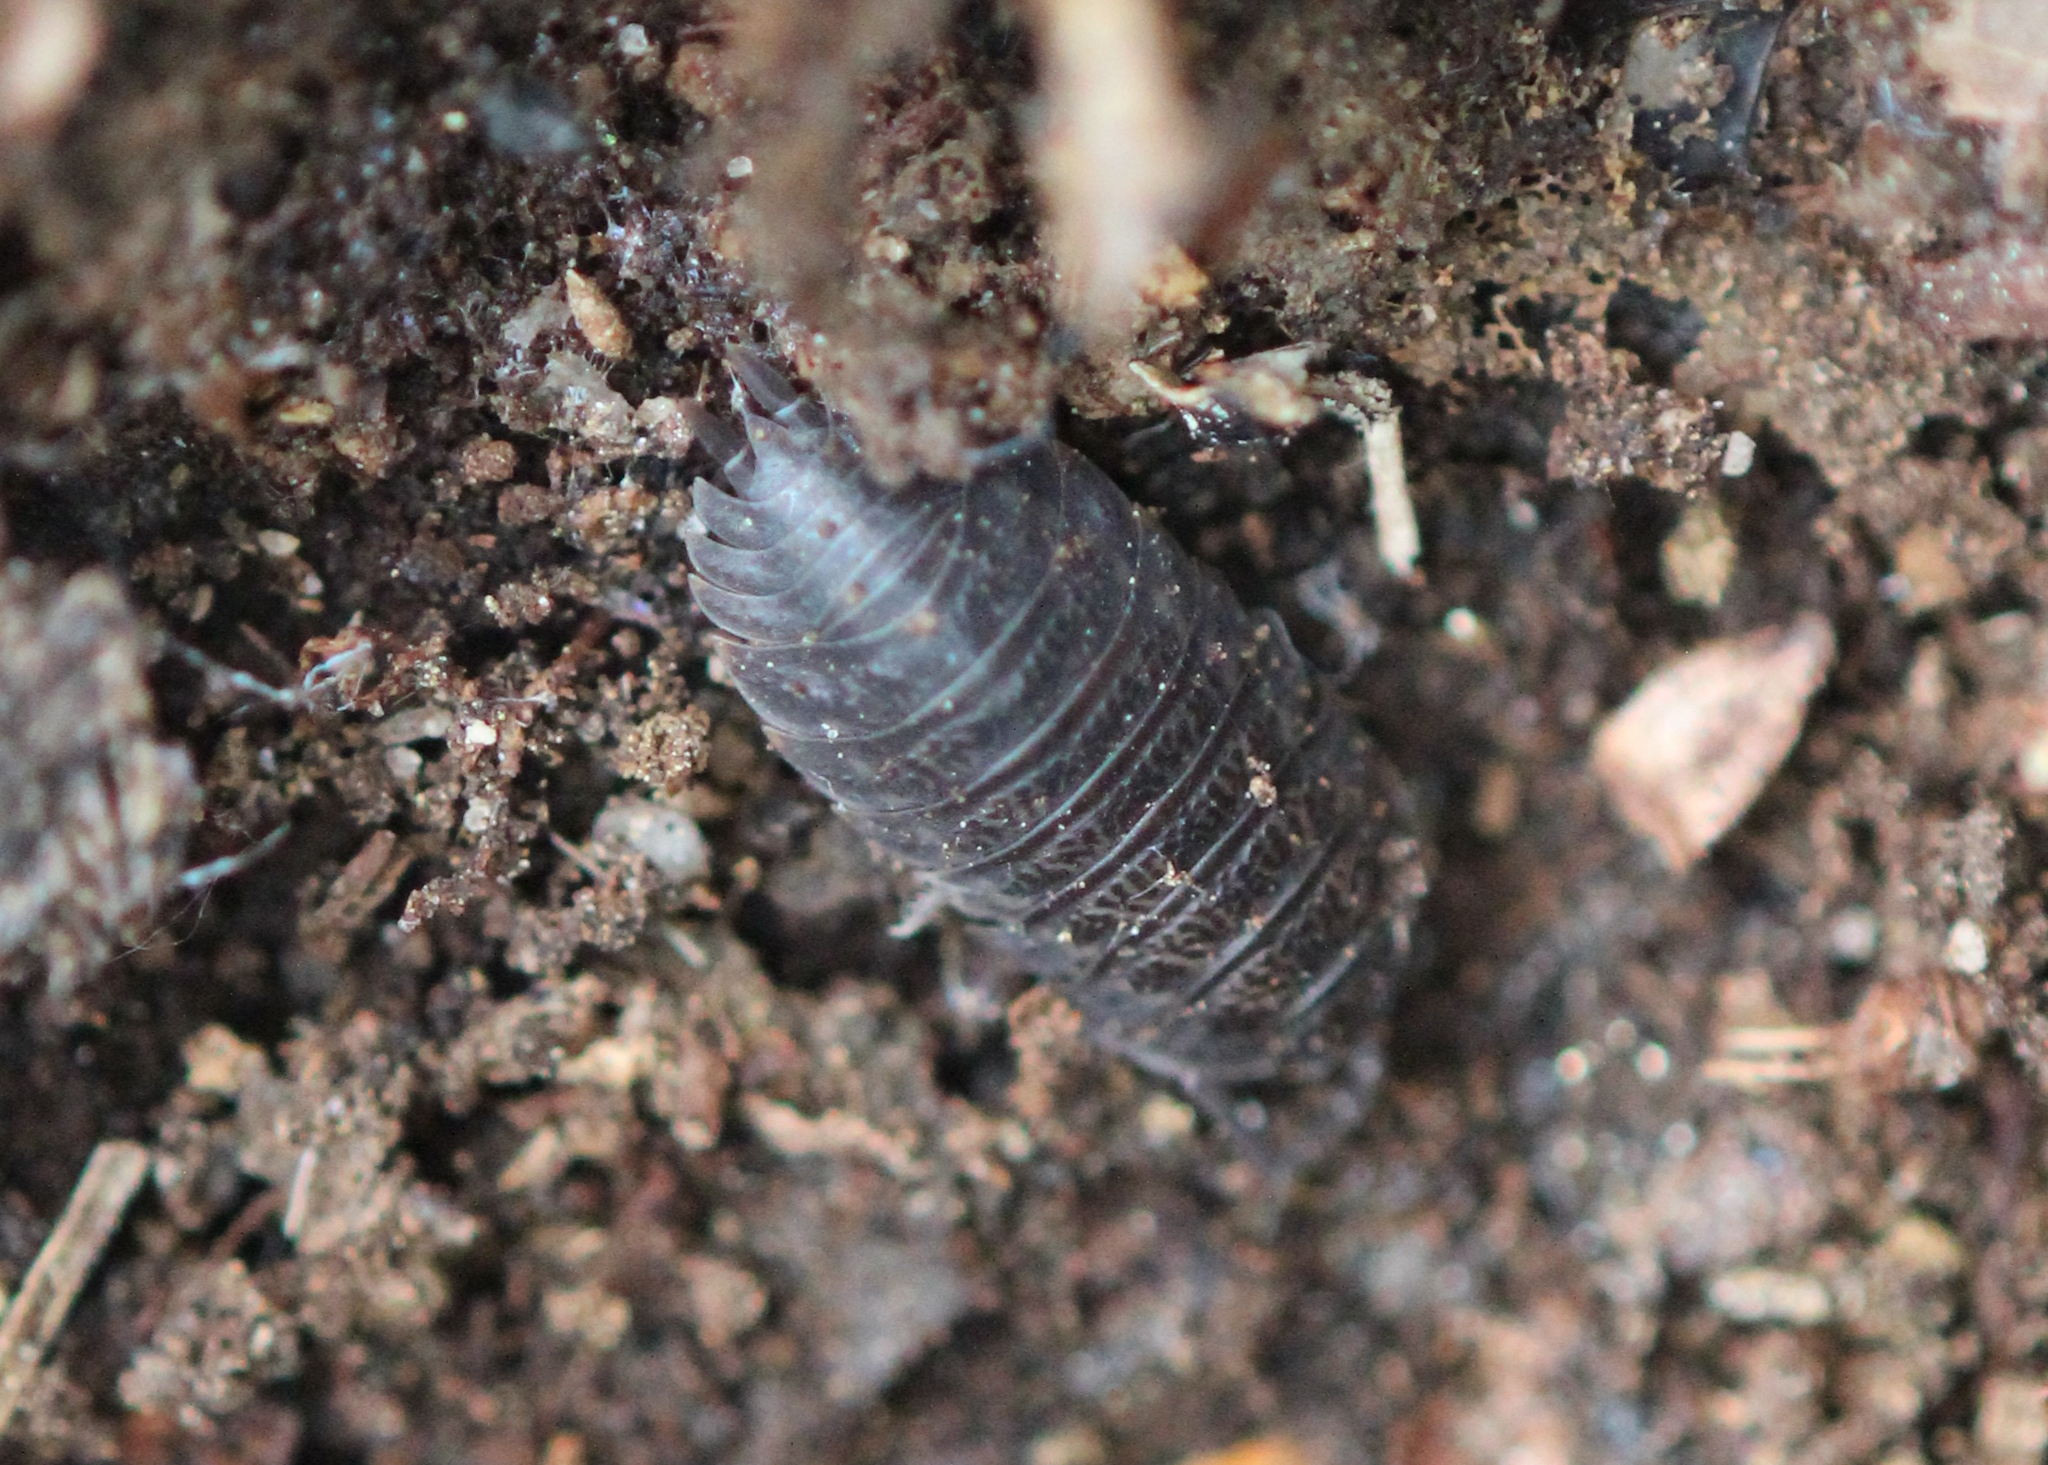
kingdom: Animalia
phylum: Arthropoda
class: Malacostraca
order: Isopoda
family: Trachelipodidae
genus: Trachelipus
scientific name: Trachelipus rathkii
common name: Isopod
